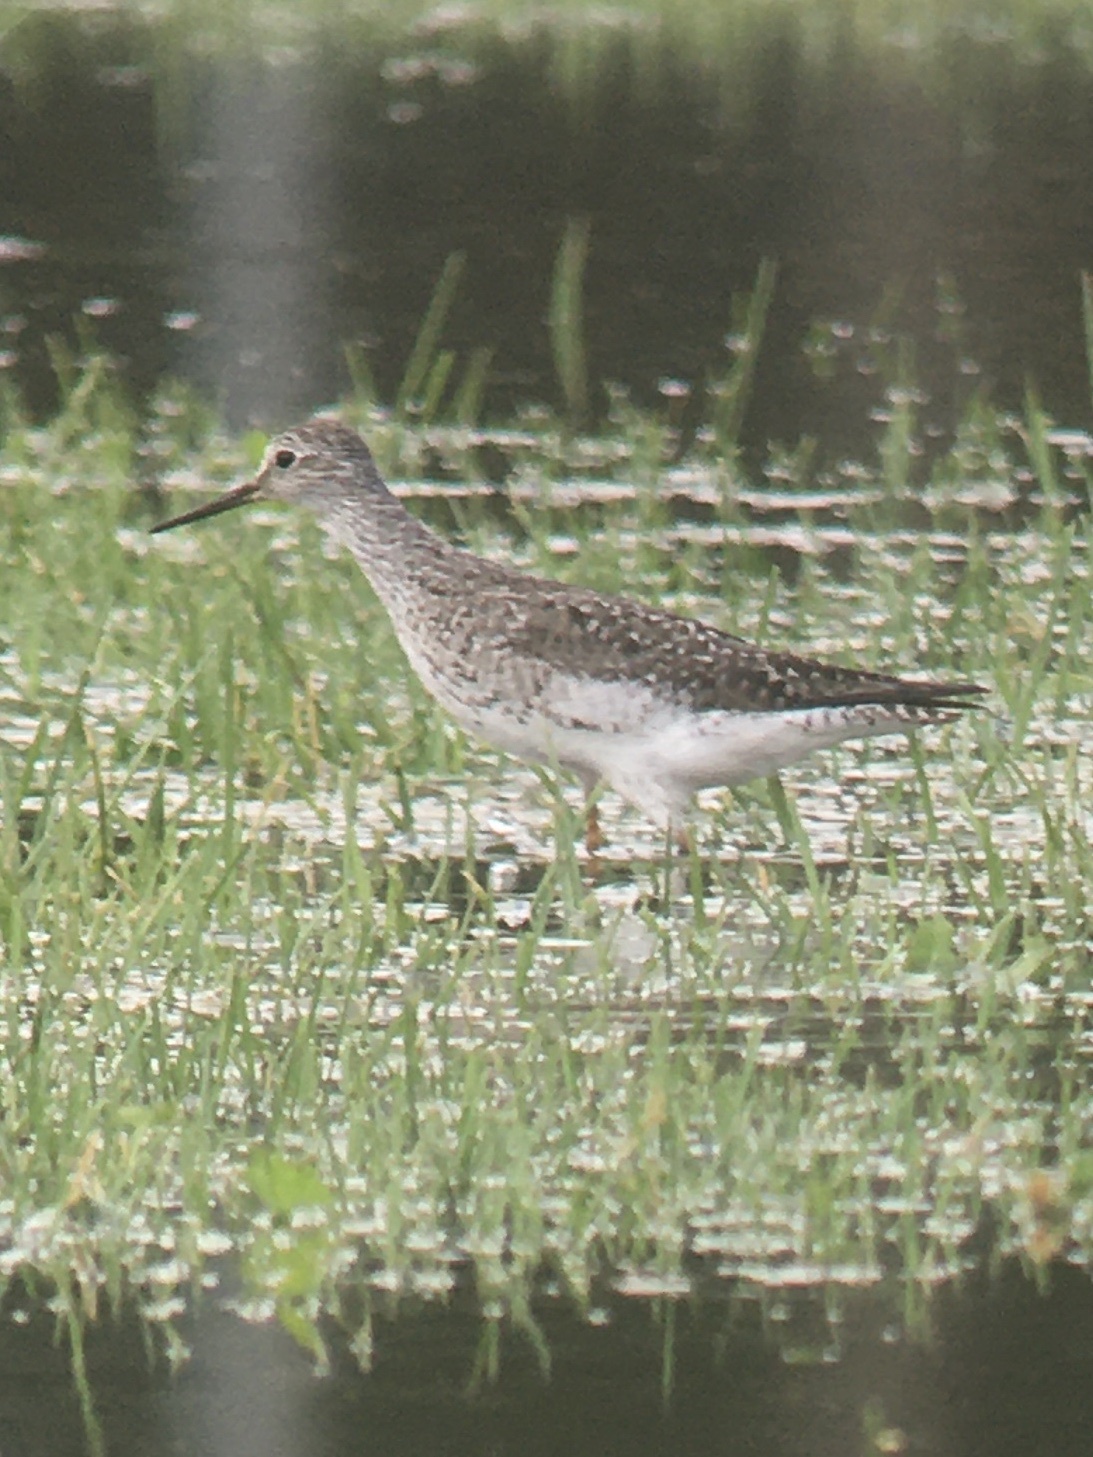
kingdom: Animalia
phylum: Chordata
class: Aves
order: Charadriiformes
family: Scolopacidae
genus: Tringa
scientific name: Tringa flavipes
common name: Lesser yellowlegs
